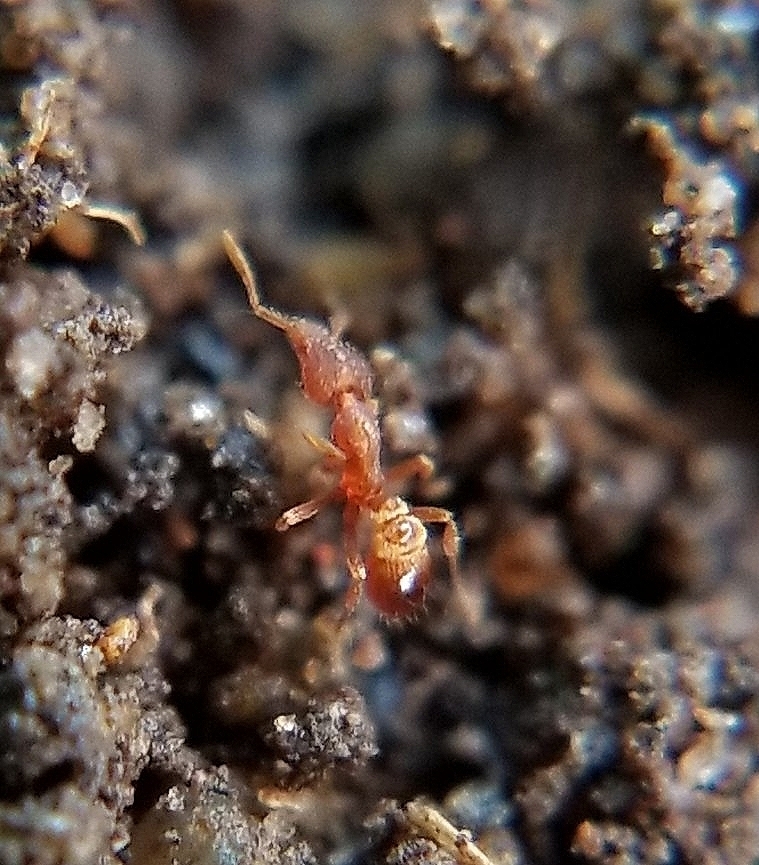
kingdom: Animalia
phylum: Arthropoda
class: Insecta
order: Hymenoptera
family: Formicidae
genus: Strumigenys
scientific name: Strumigenys ananeotes
